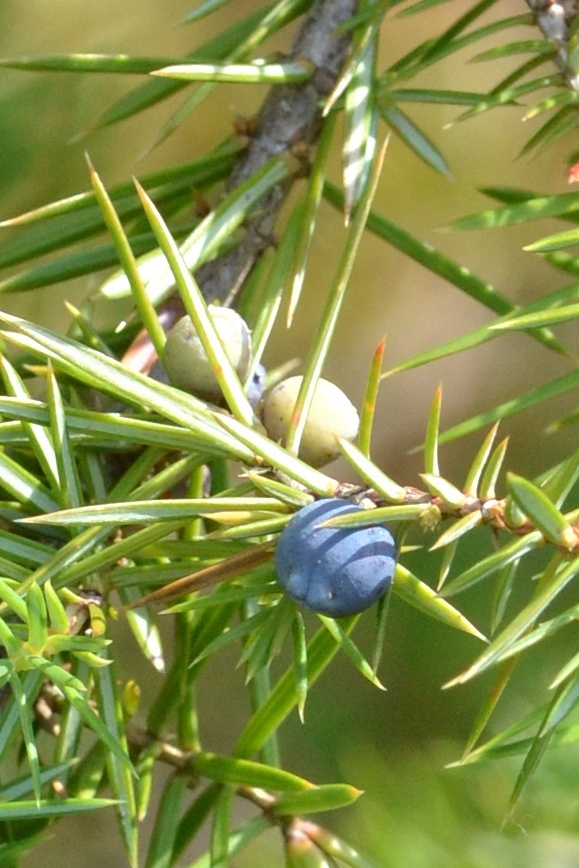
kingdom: Plantae
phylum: Tracheophyta
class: Pinopsida
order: Pinales
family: Cupressaceae
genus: Juniperus
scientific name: Juniperus communis
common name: Common juniper
